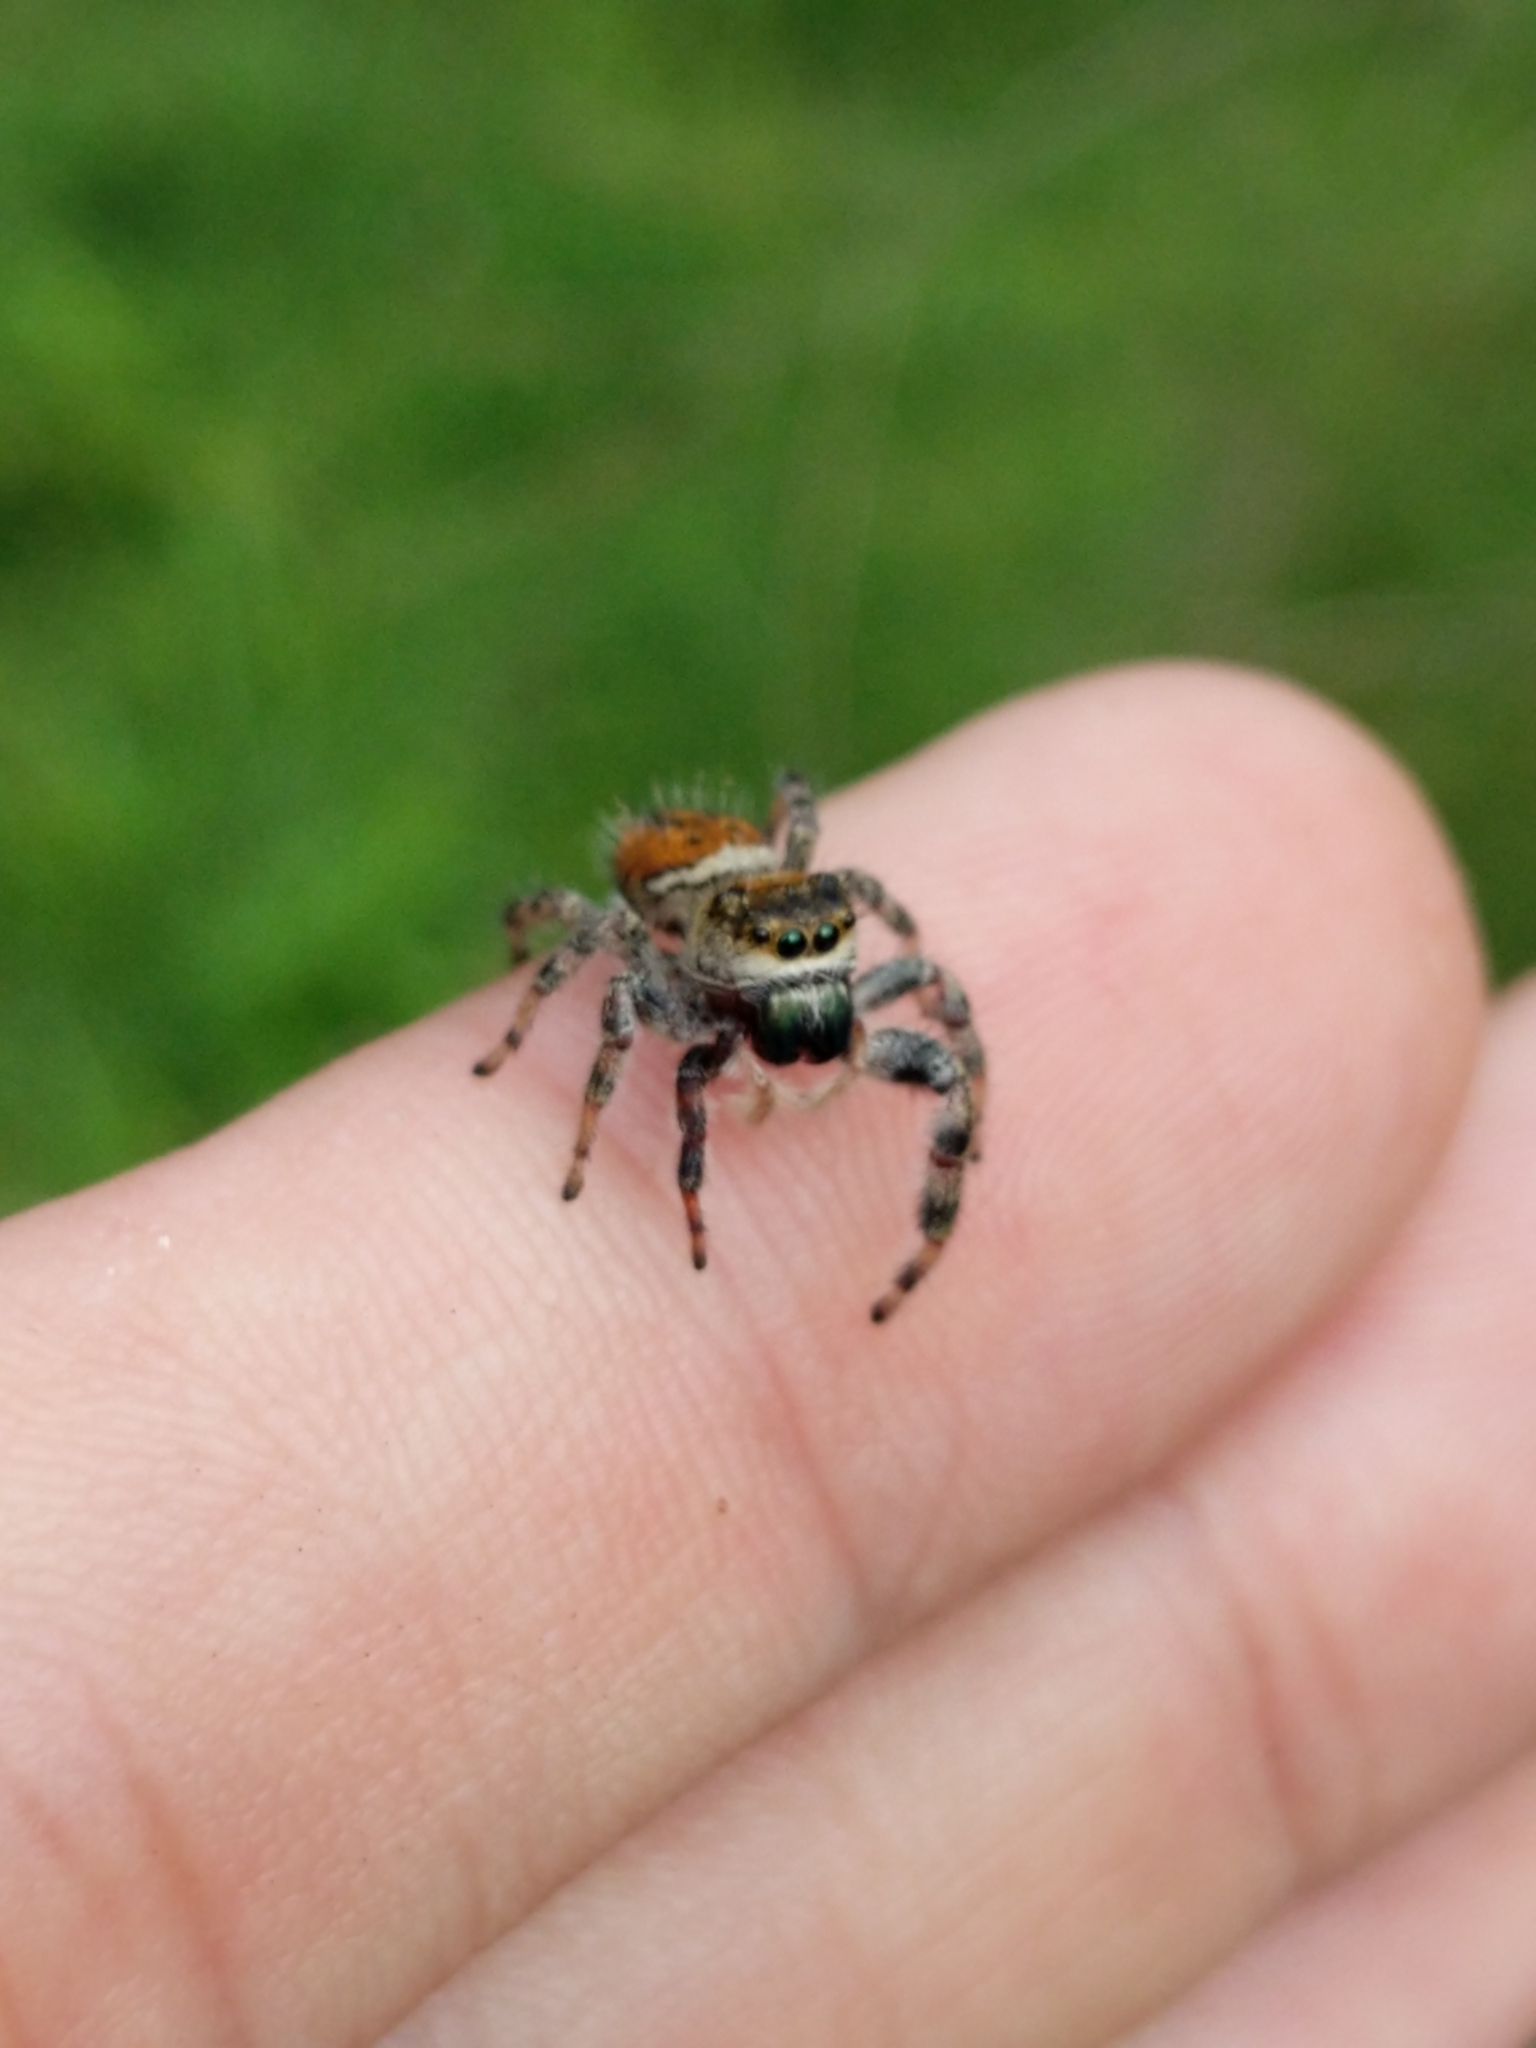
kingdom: Animalia
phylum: Arthropoda
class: Arachnida
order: Araneae
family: Salticidae
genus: Phidippus
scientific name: Phidippus clarus
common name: Brilliant jumping spider
